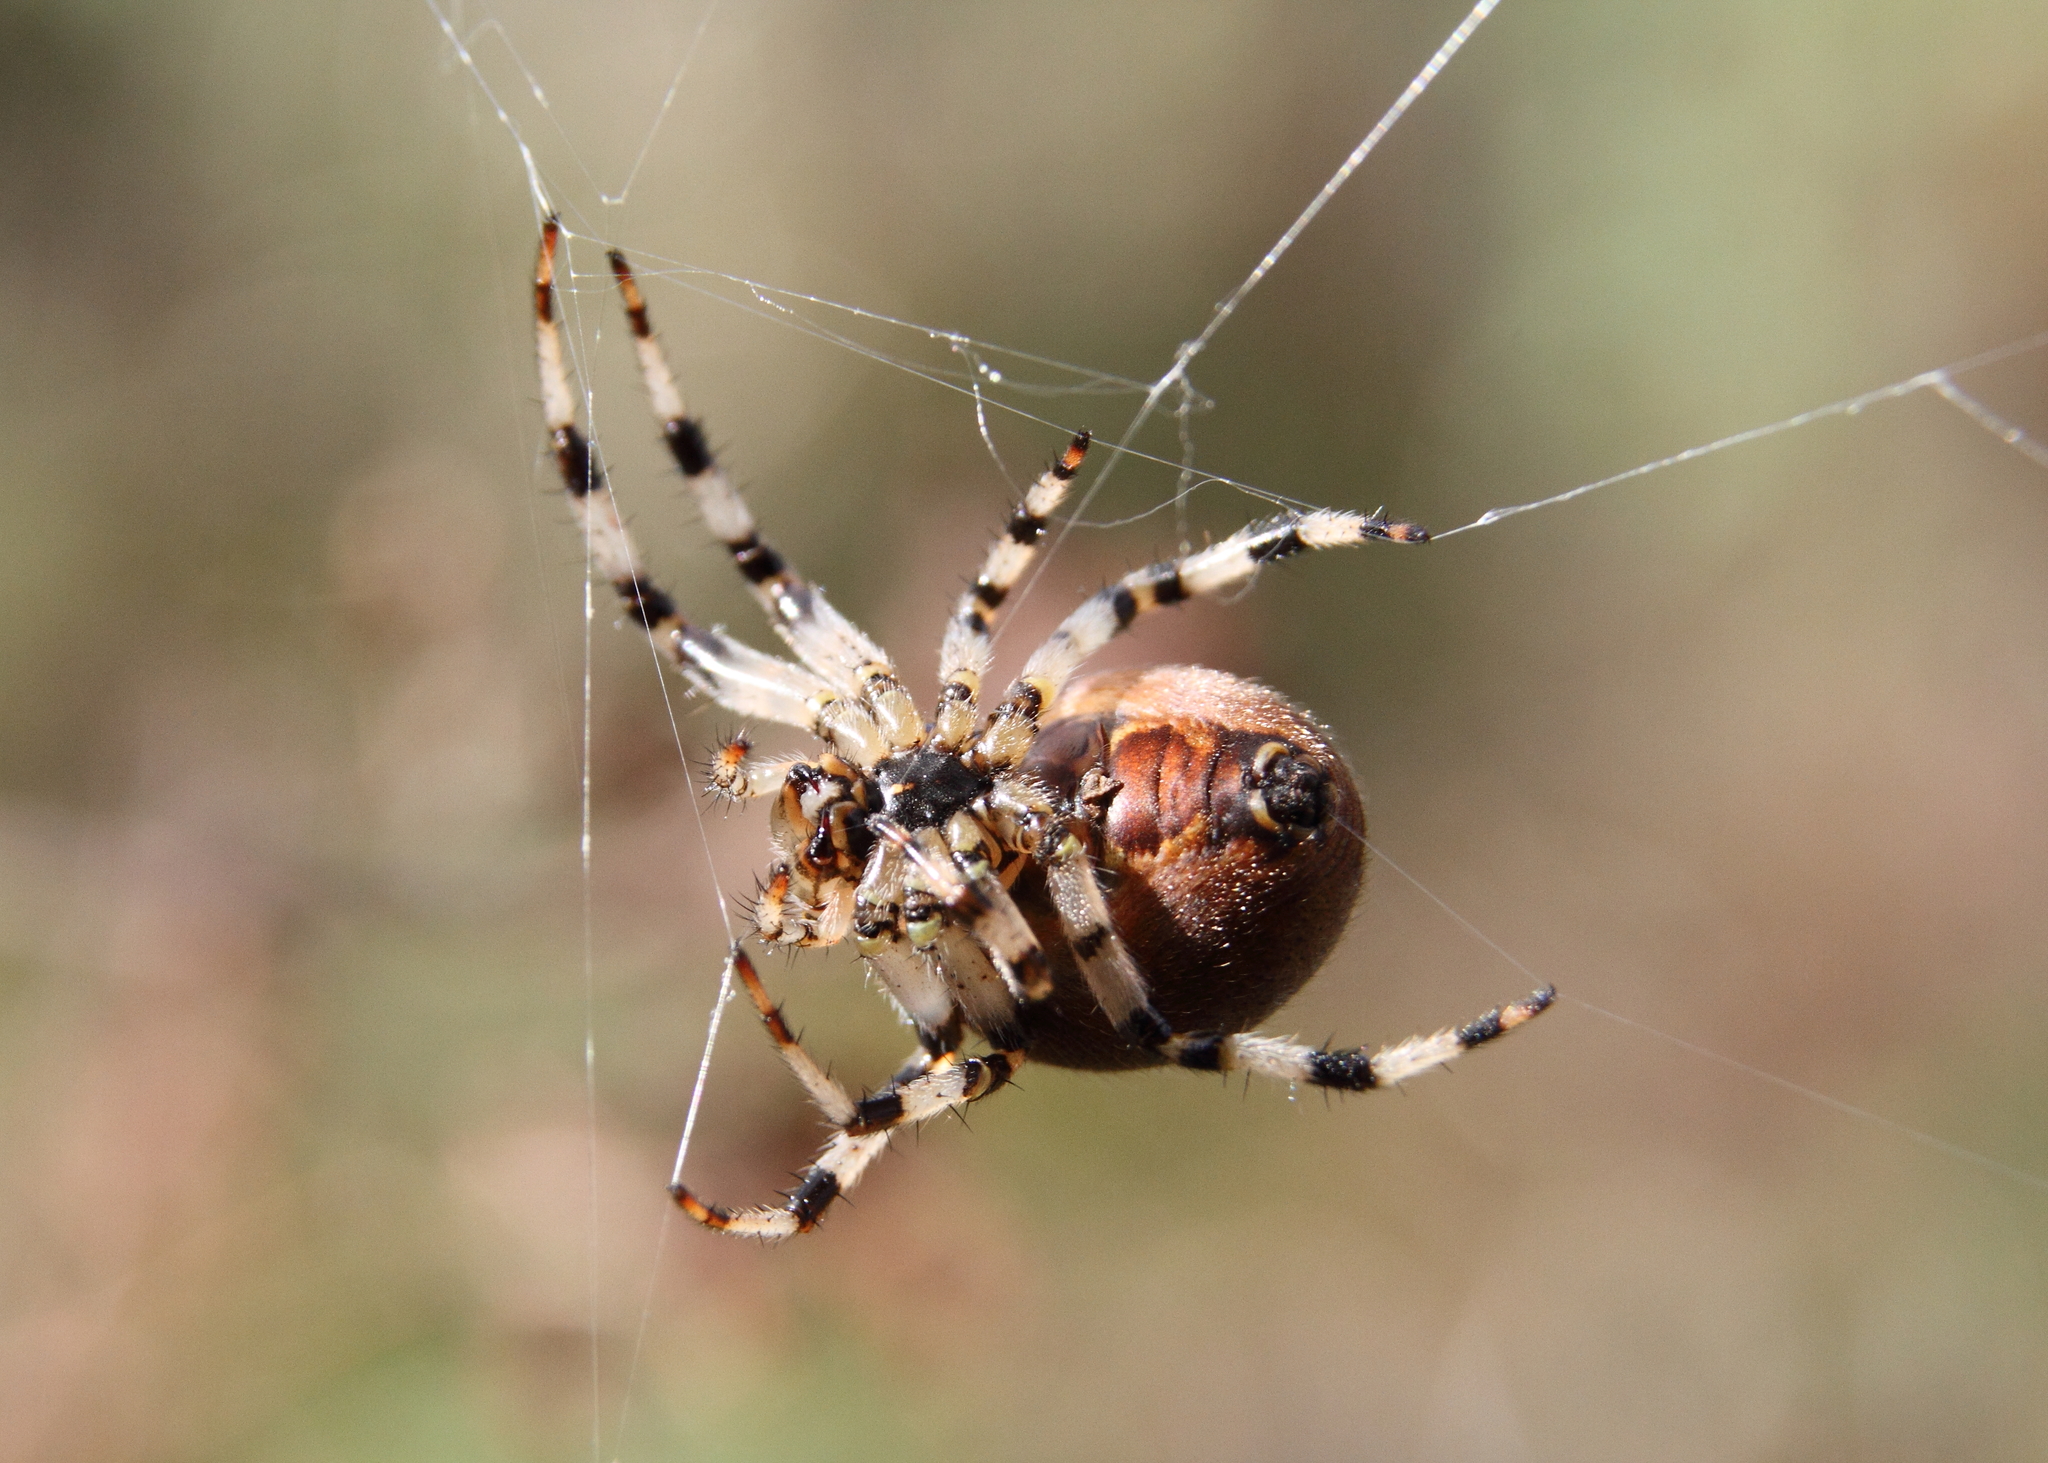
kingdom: Animalia
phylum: Arthropoda
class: Arachnida
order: Araneae
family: Araneidae
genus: Araneus
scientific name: Araneus quadratus
